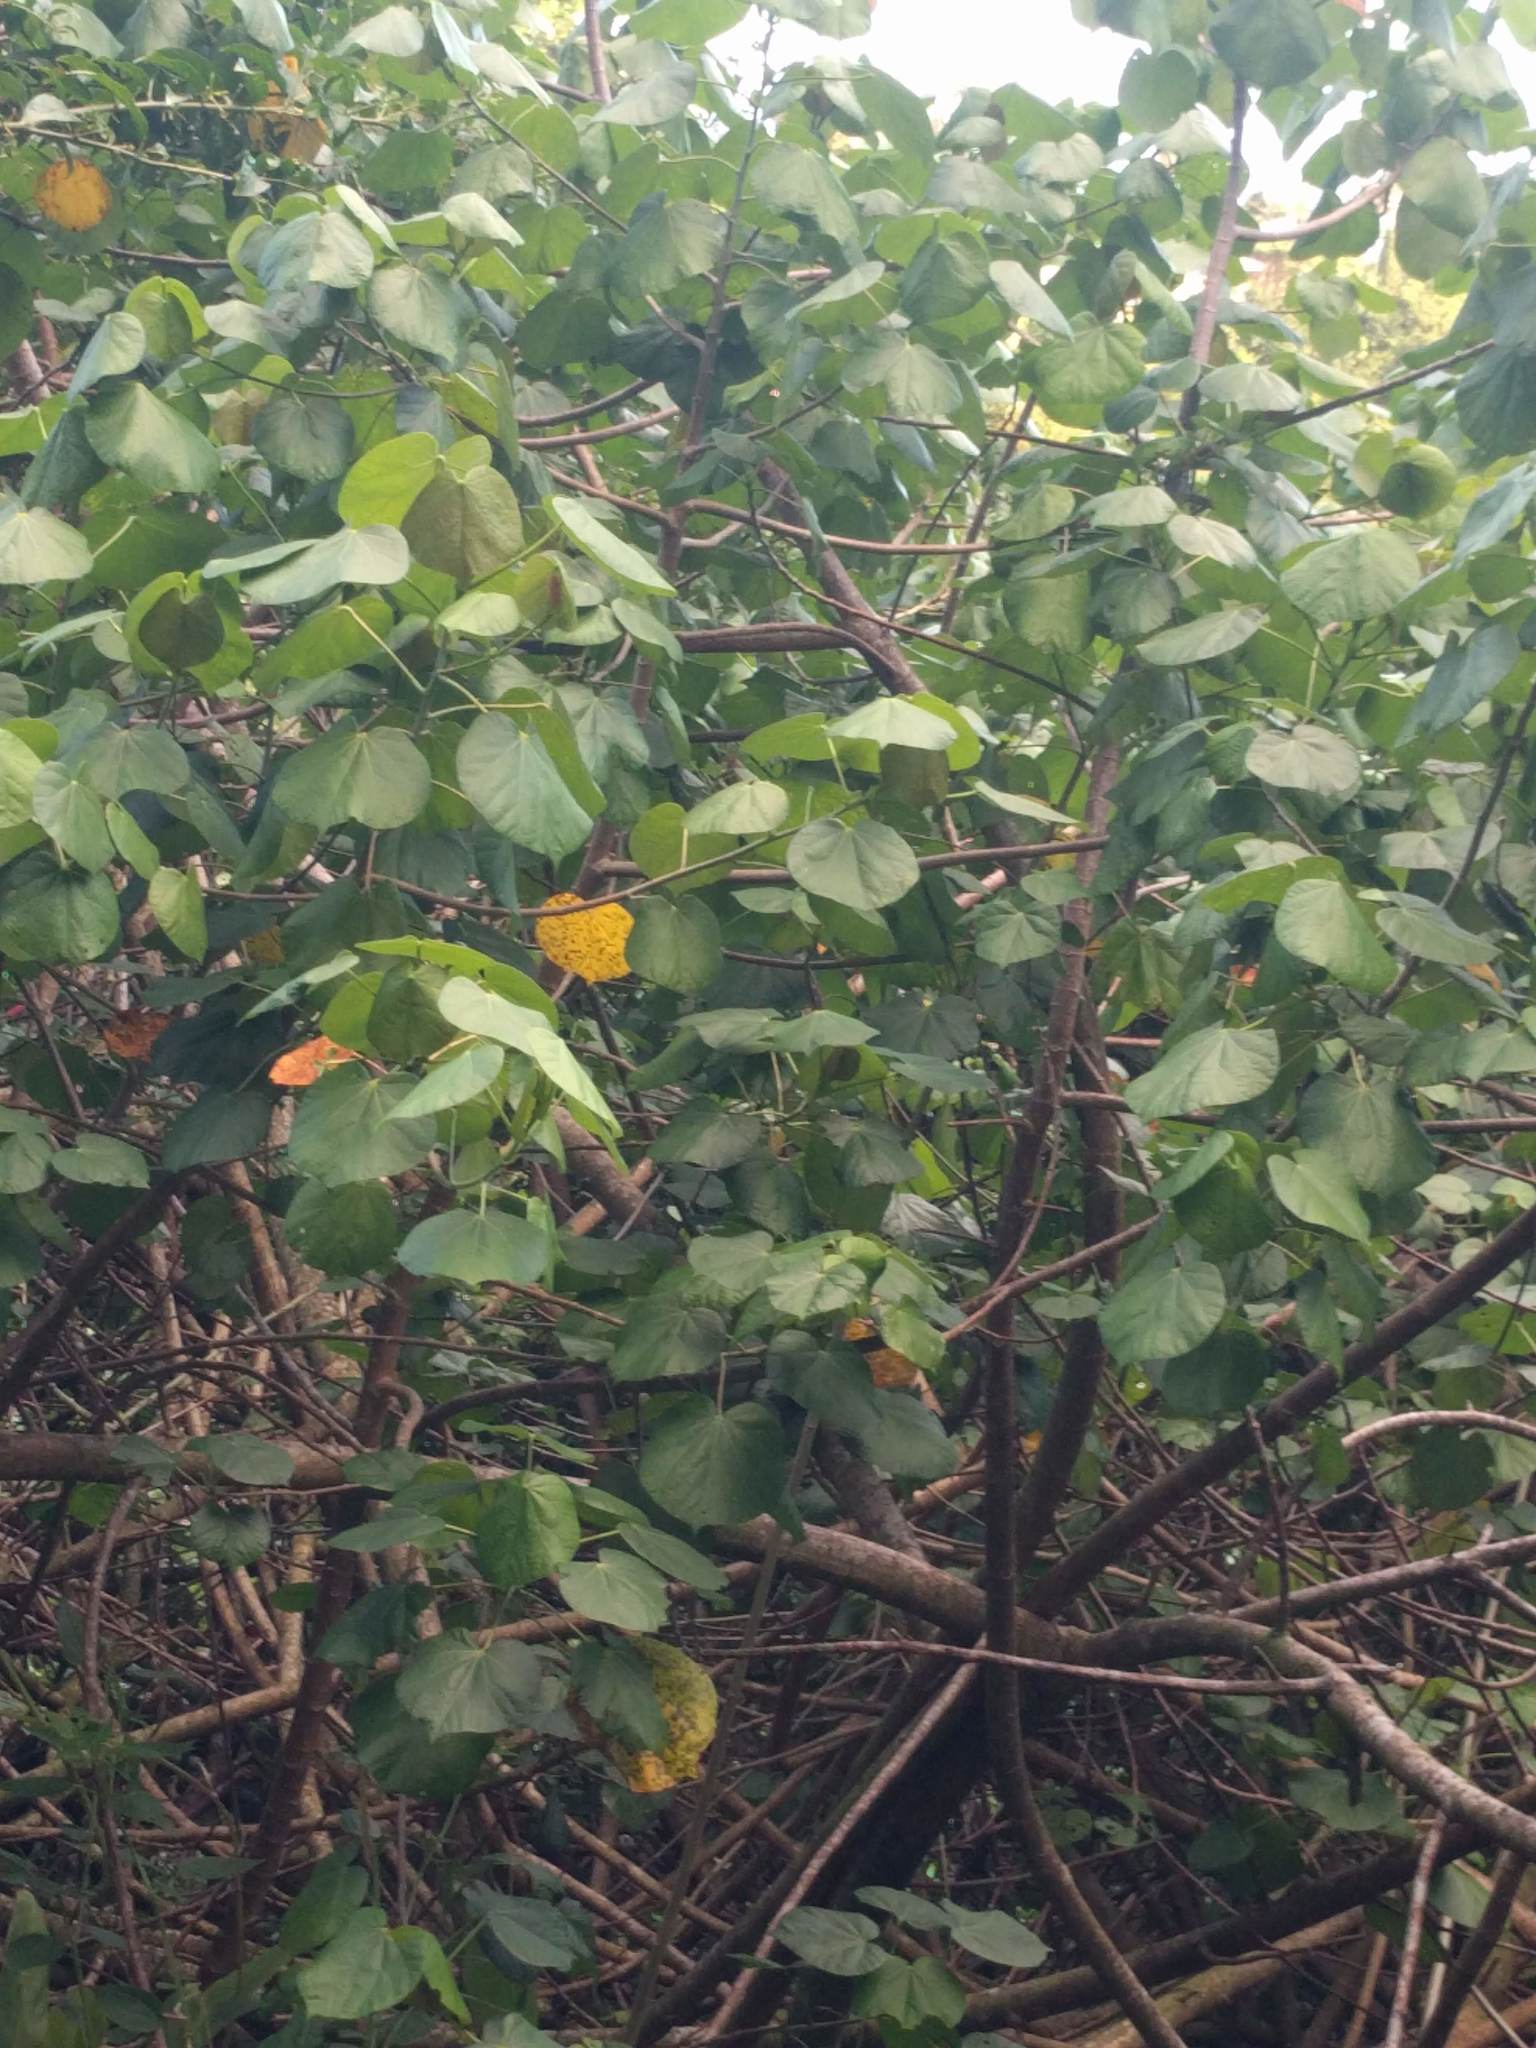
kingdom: Plantae
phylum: Tracheophyta
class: Magnoliopsida
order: Malvales
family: Malvaceae
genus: Talipariti
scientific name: Talipariti tiliaceum
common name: Sea hibiscus
